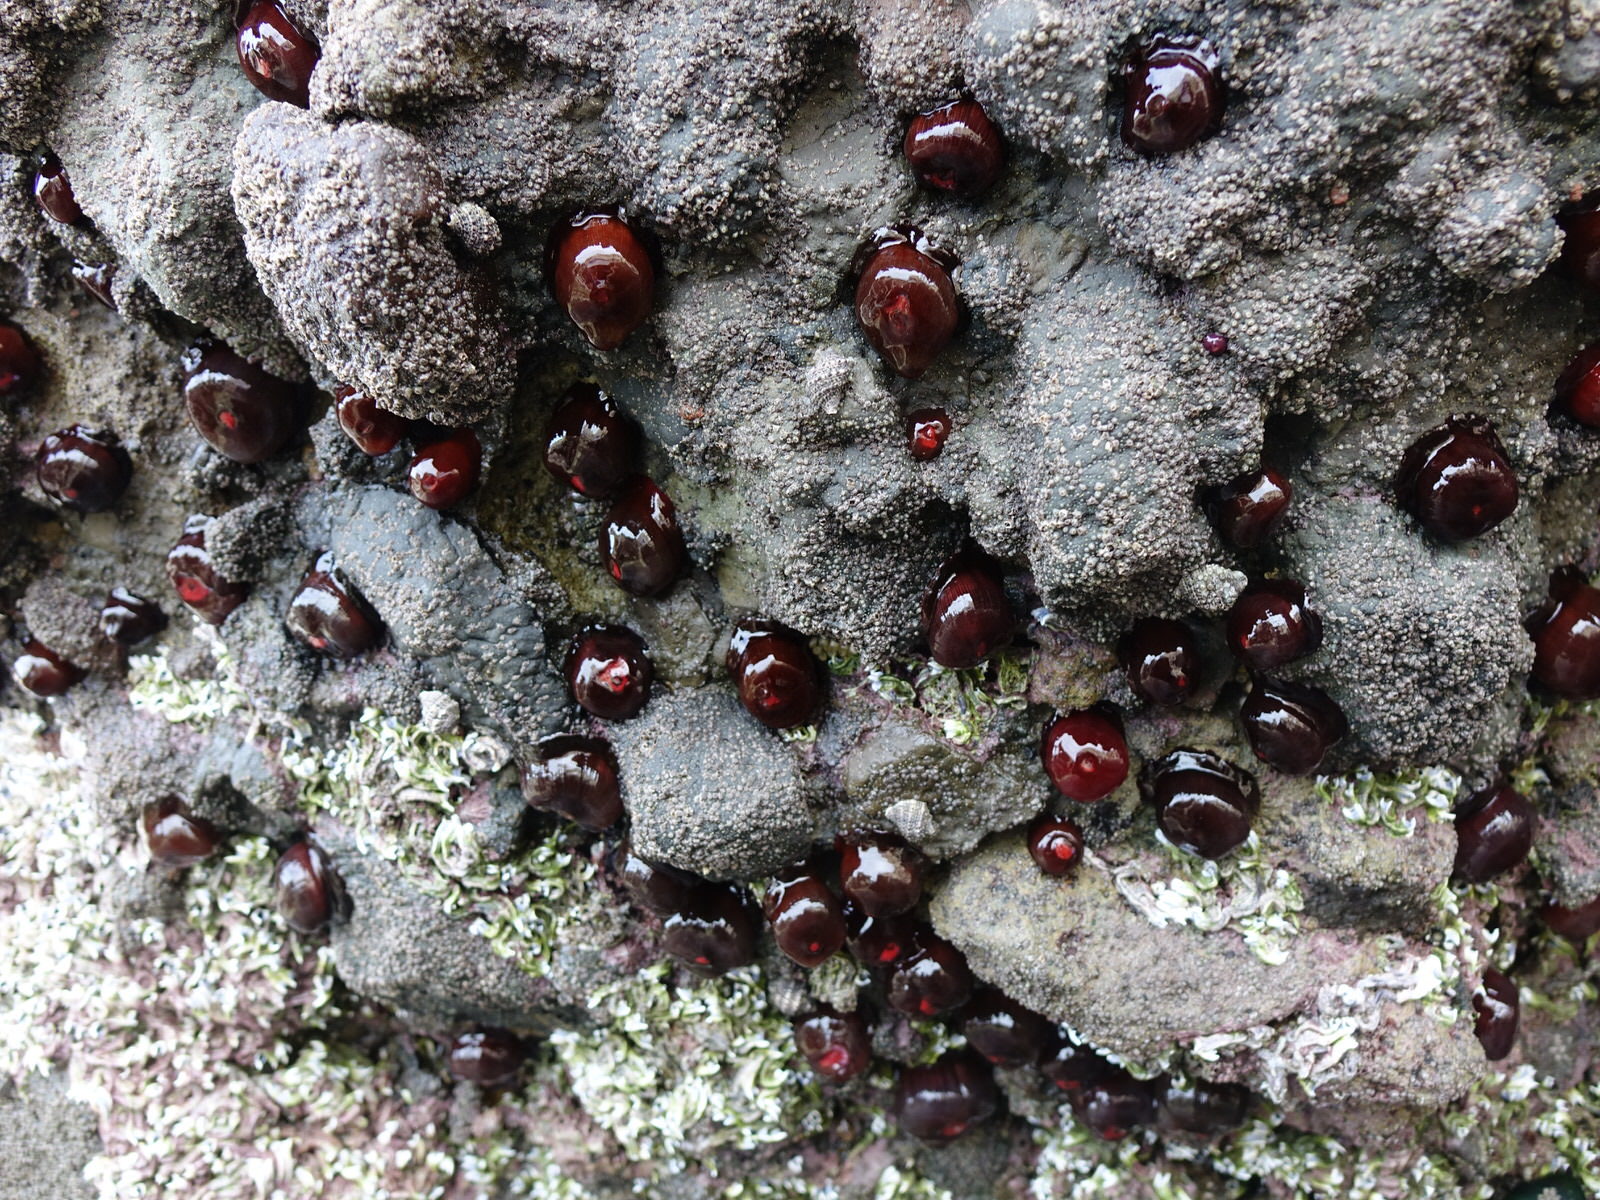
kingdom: Animalia
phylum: Cnidaria
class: Anthozoa
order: Actiniaria
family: Actiniidae
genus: Actinia
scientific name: Actinia tenebrosa
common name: Waratah anemone
